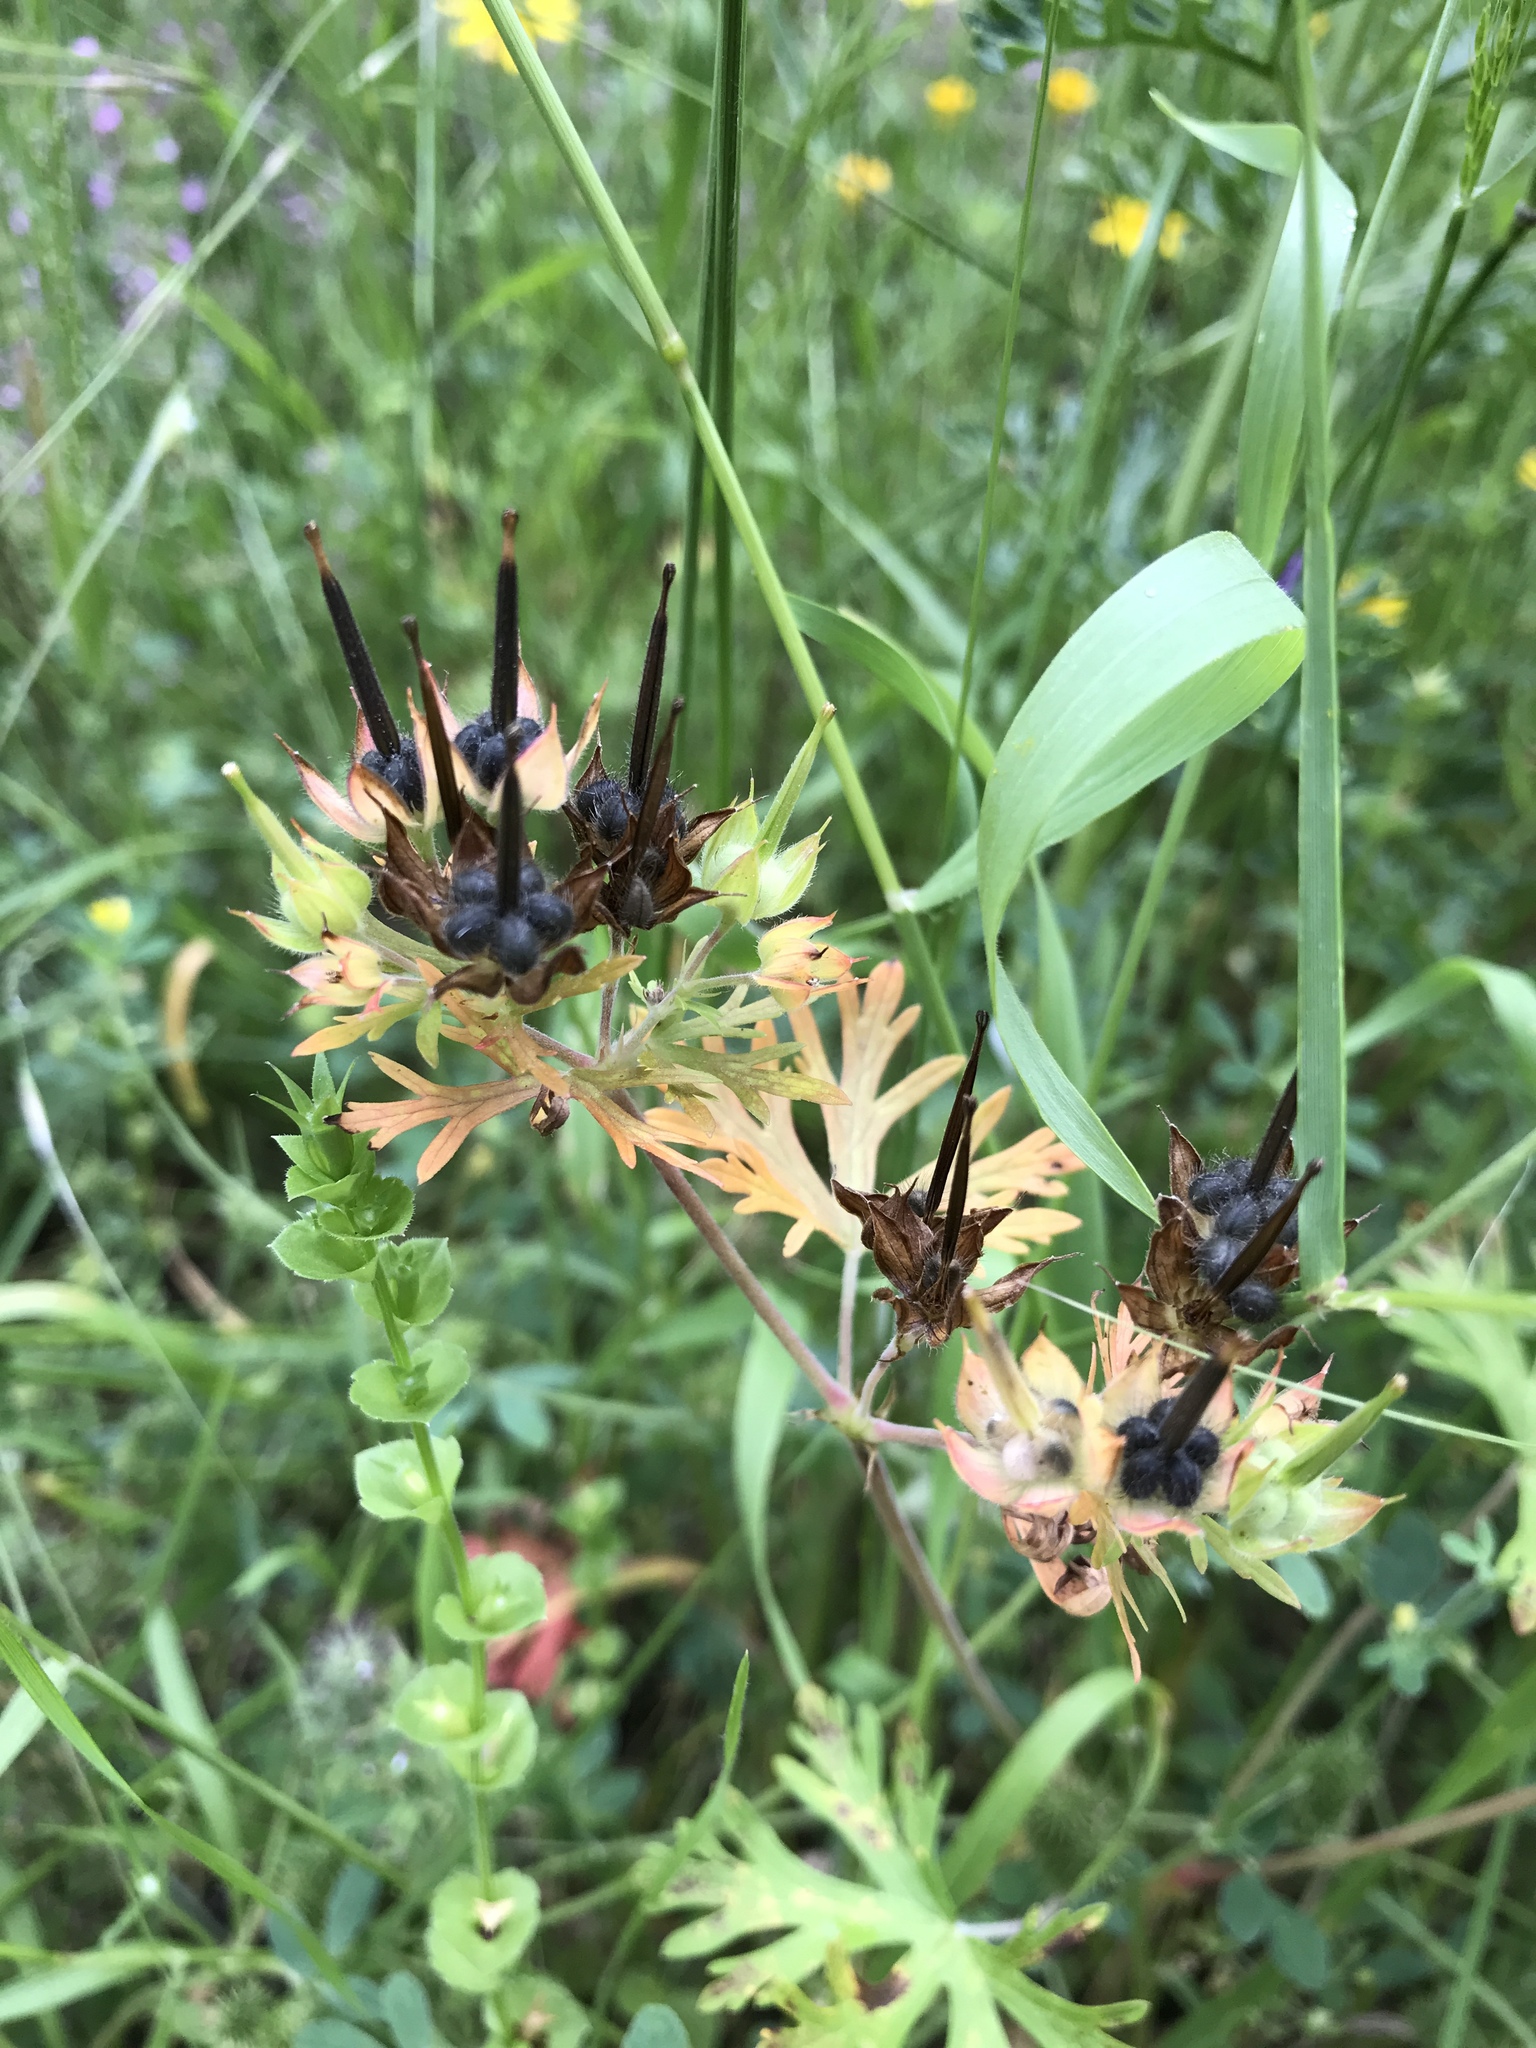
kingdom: Plantae
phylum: Tracheophyta
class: Magnoliopsida
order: Geraniales
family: Geraniaceae
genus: Geranium
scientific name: Geranium carolinianum
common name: Carolina crane's-bill
